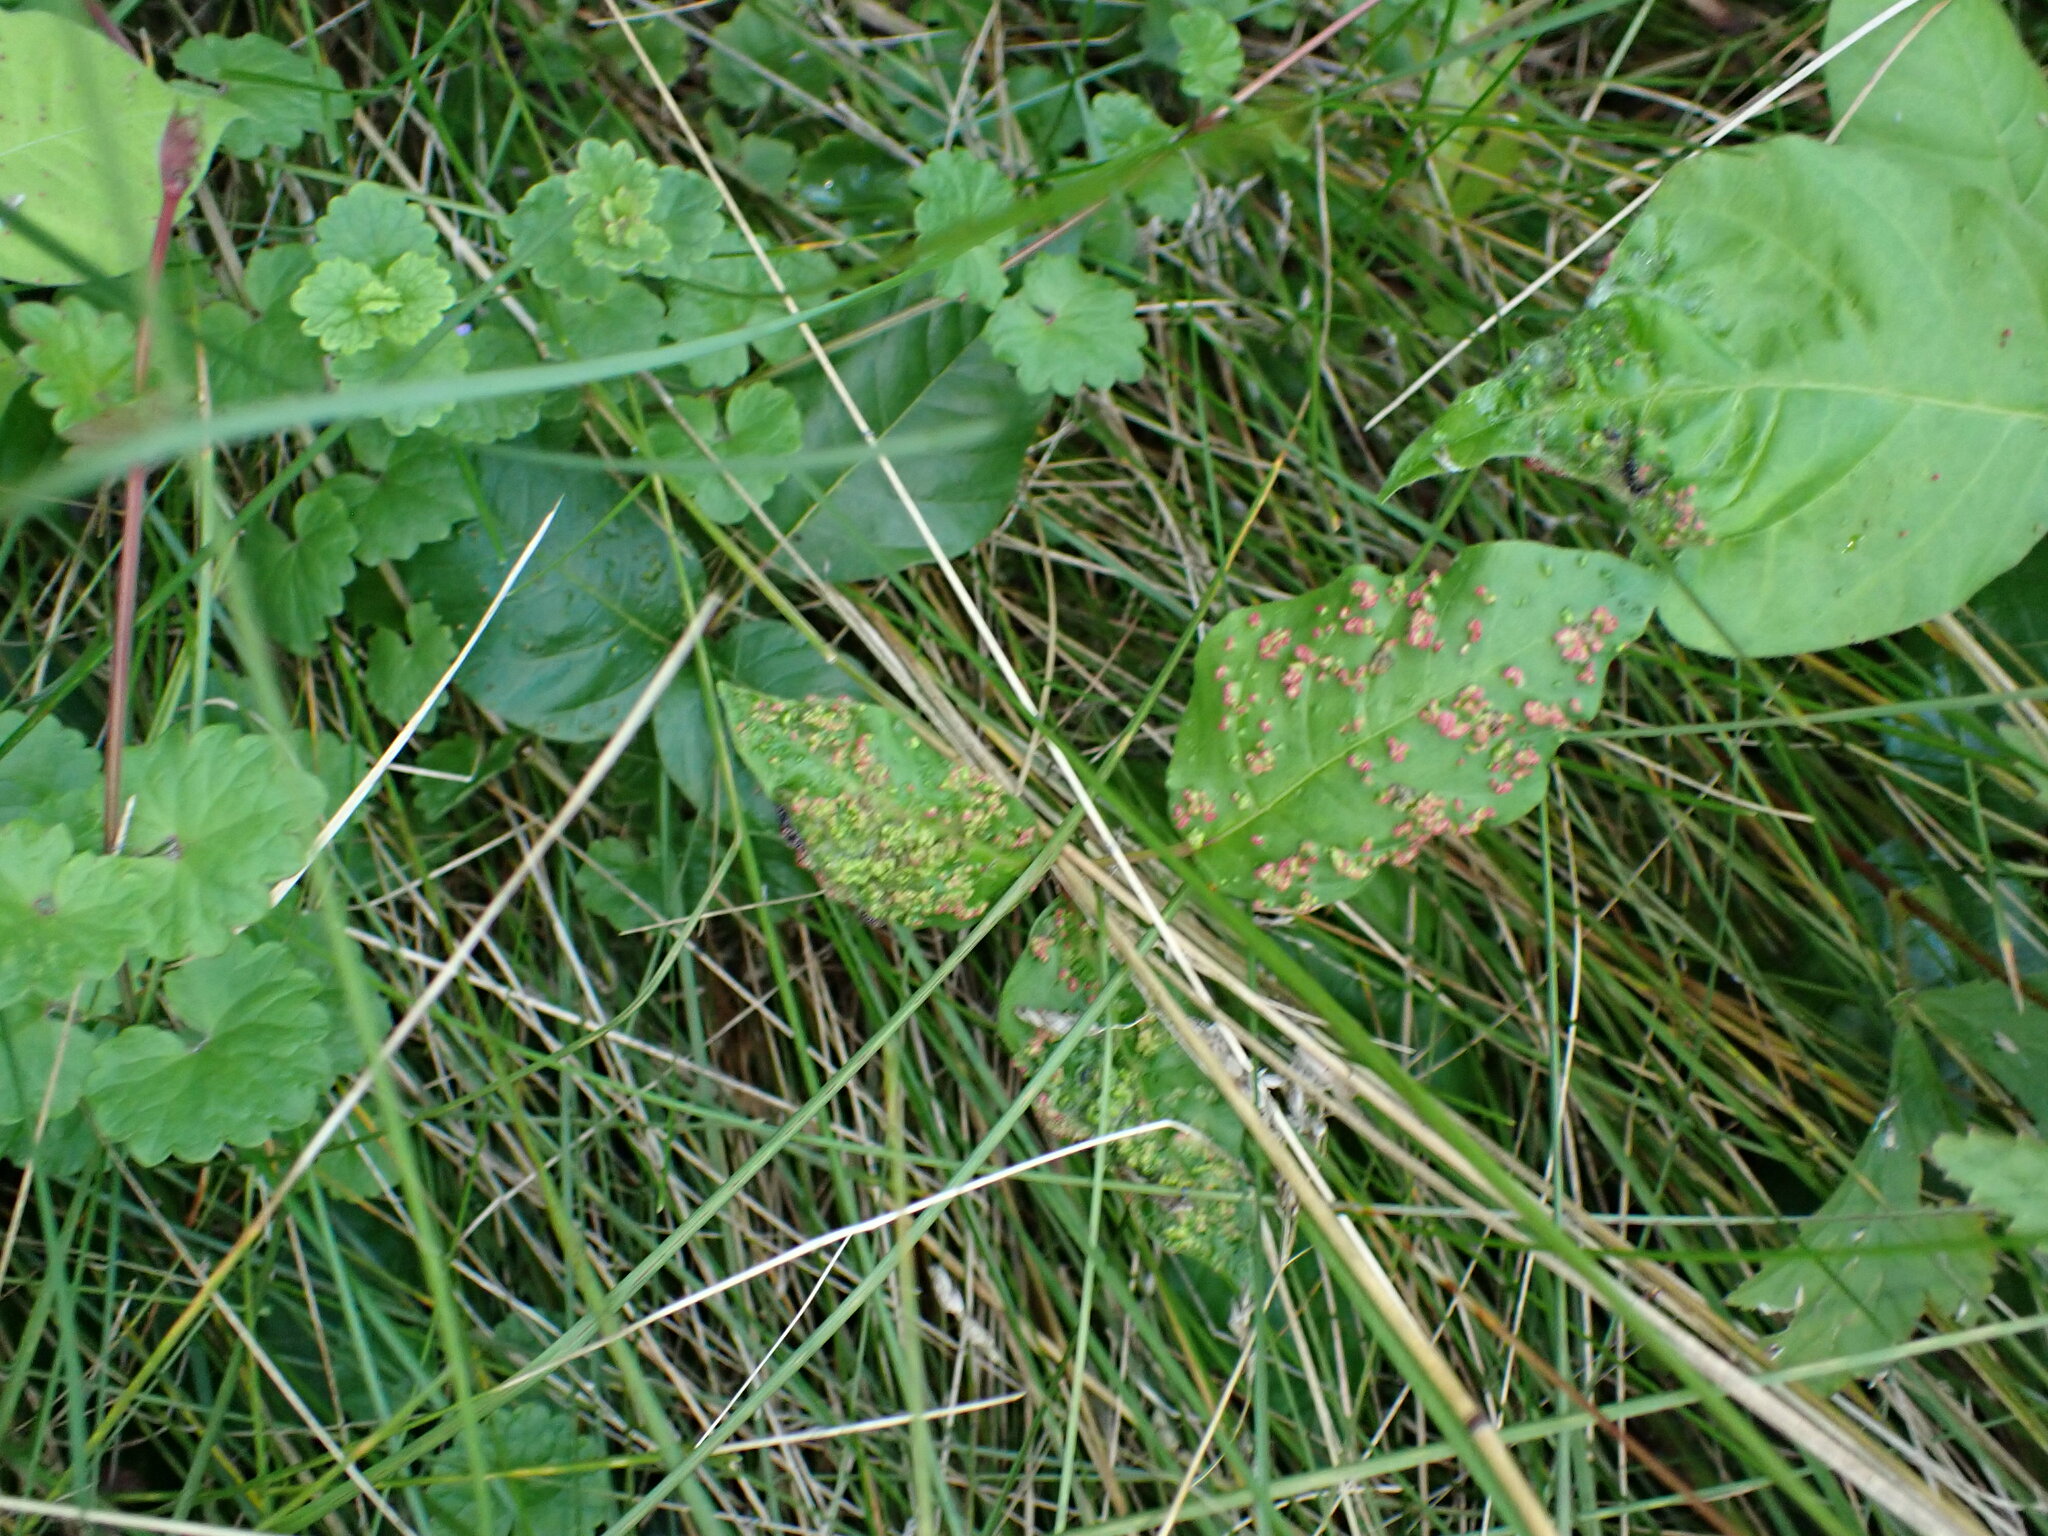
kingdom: Animalia
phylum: Arthropoda
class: Arachnida
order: Trombidiformes
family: Eriophyidae
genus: Aculops
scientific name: Aculops
